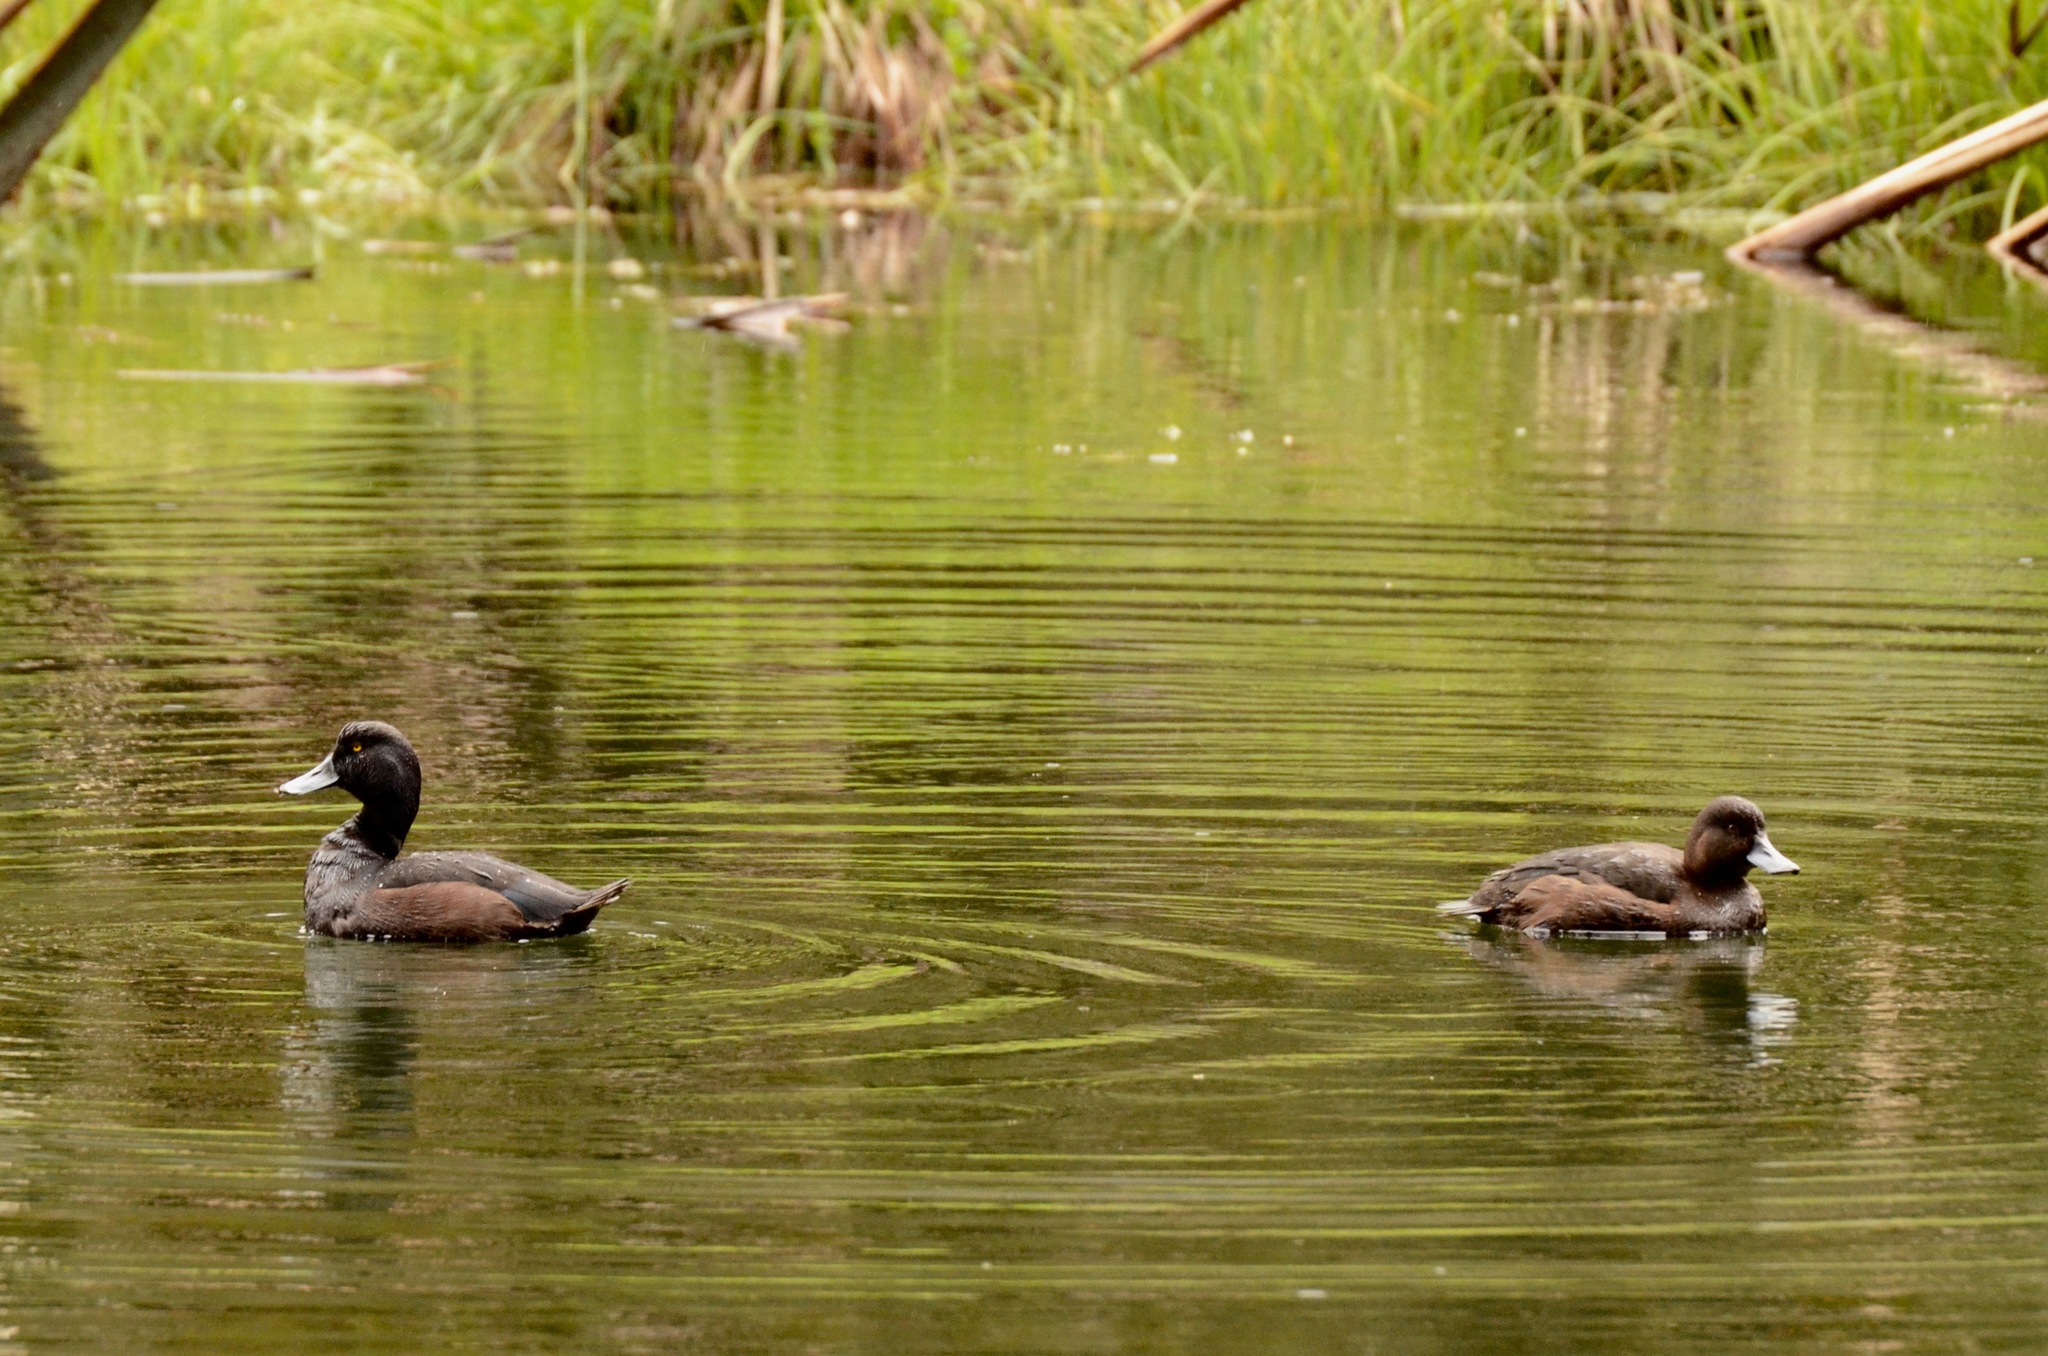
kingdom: Animalia
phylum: Chordata
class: Aves
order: Anseriformes
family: Anatidae
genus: Aythya
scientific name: Aythya novaeseelandiae
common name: New zealand scaup
